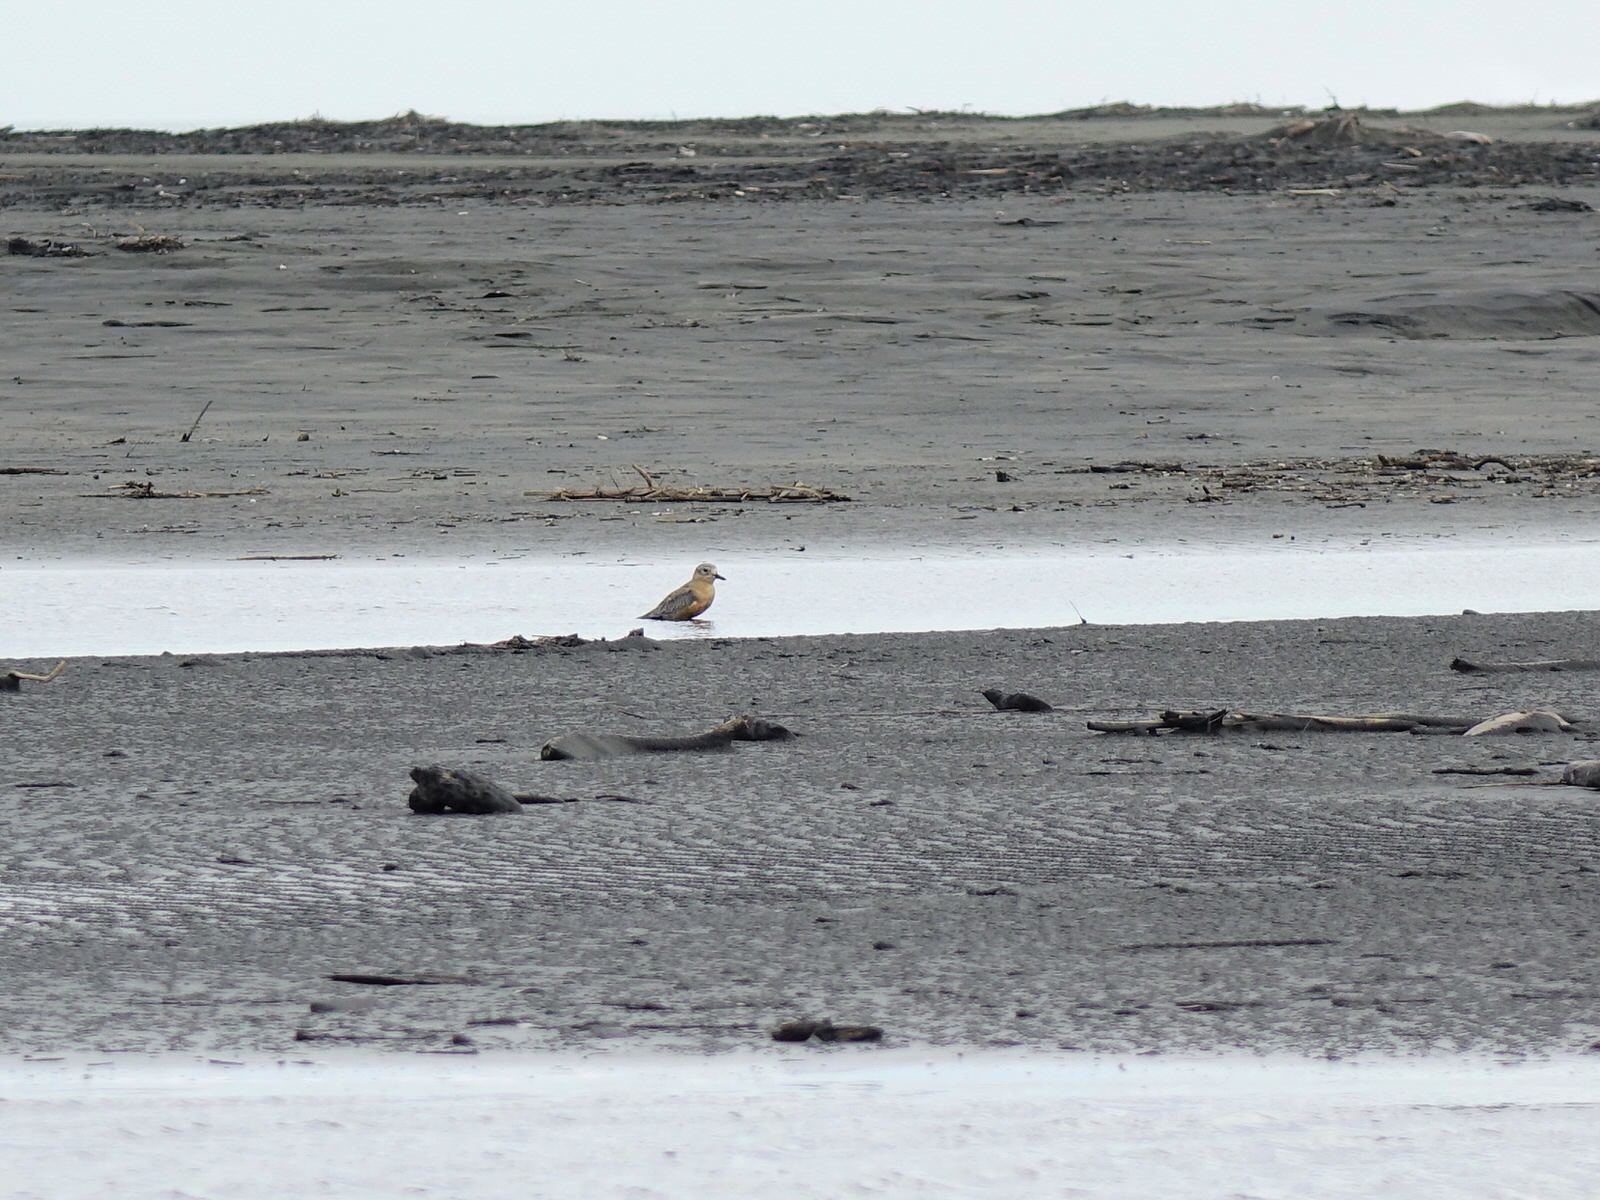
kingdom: Animalia
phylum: Chordata
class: Aves
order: Charadriiformes
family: Charadriidae
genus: Anarhynchus
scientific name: Anarhynchus
